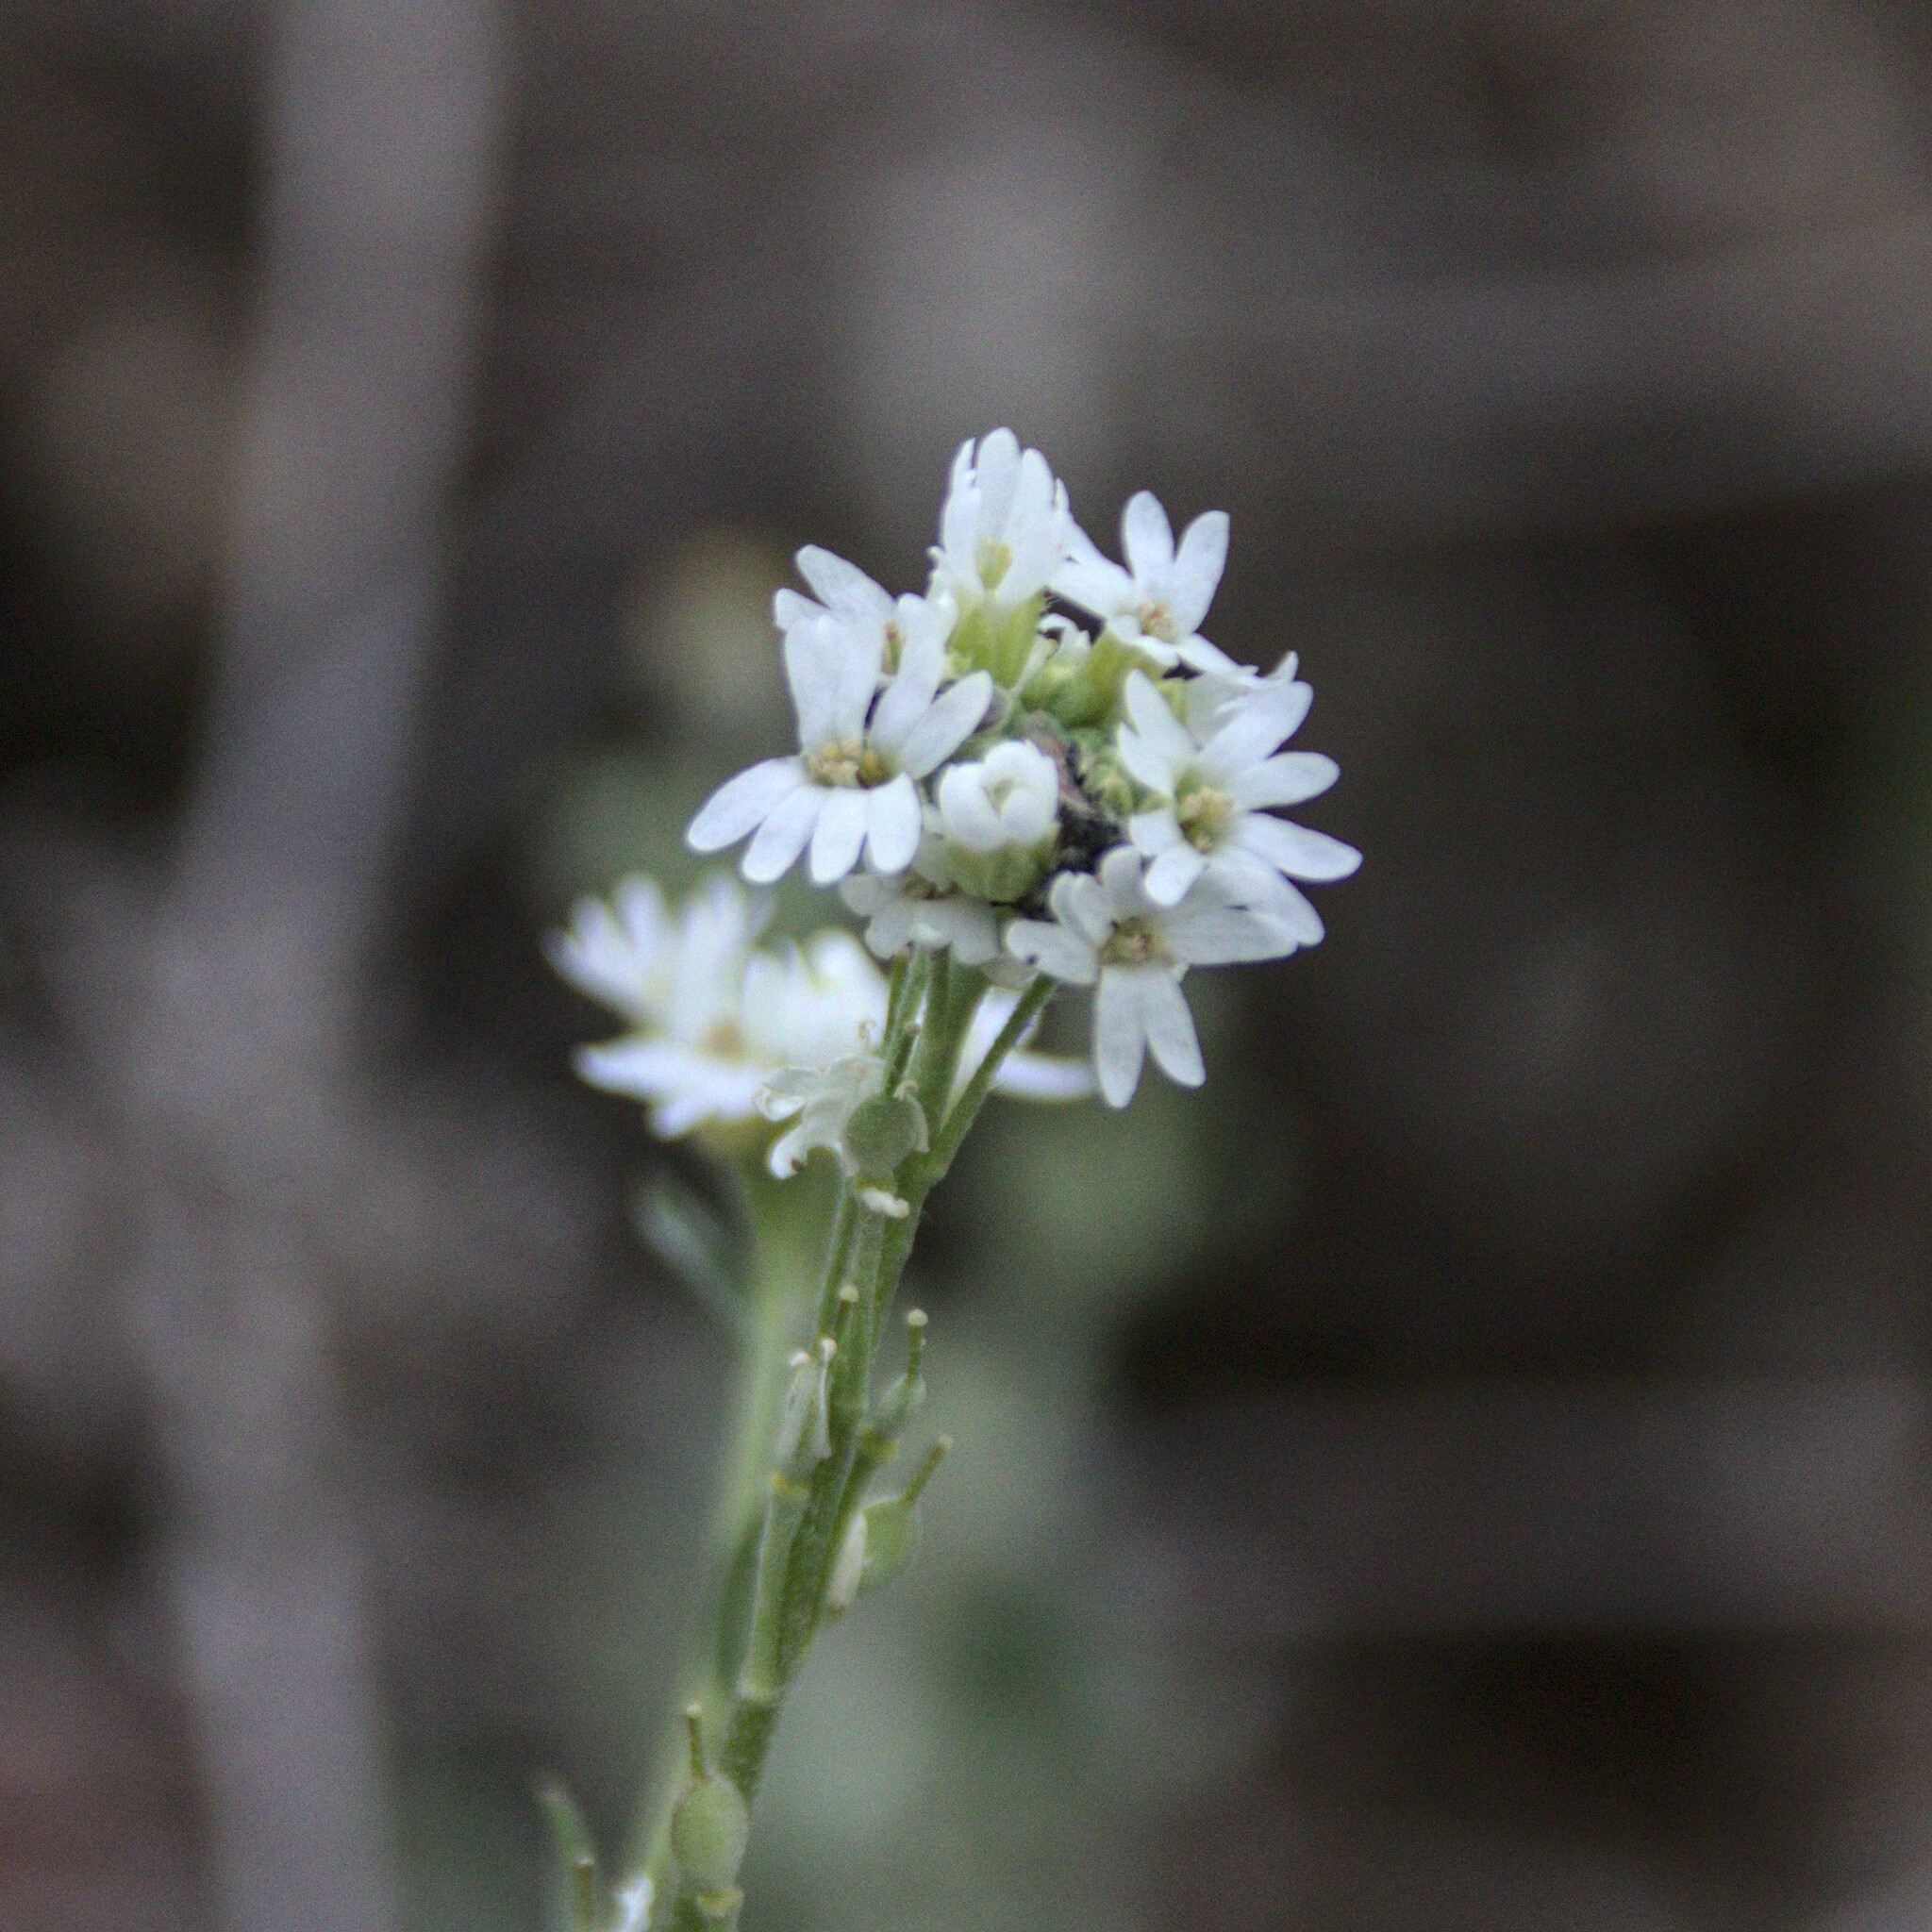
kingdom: Plantae
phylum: Tracheophyta
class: Magnoliopsida
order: Brassicales
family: Brassicaceae
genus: Berteroa
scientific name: Berteroa incana
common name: Hoary alison
